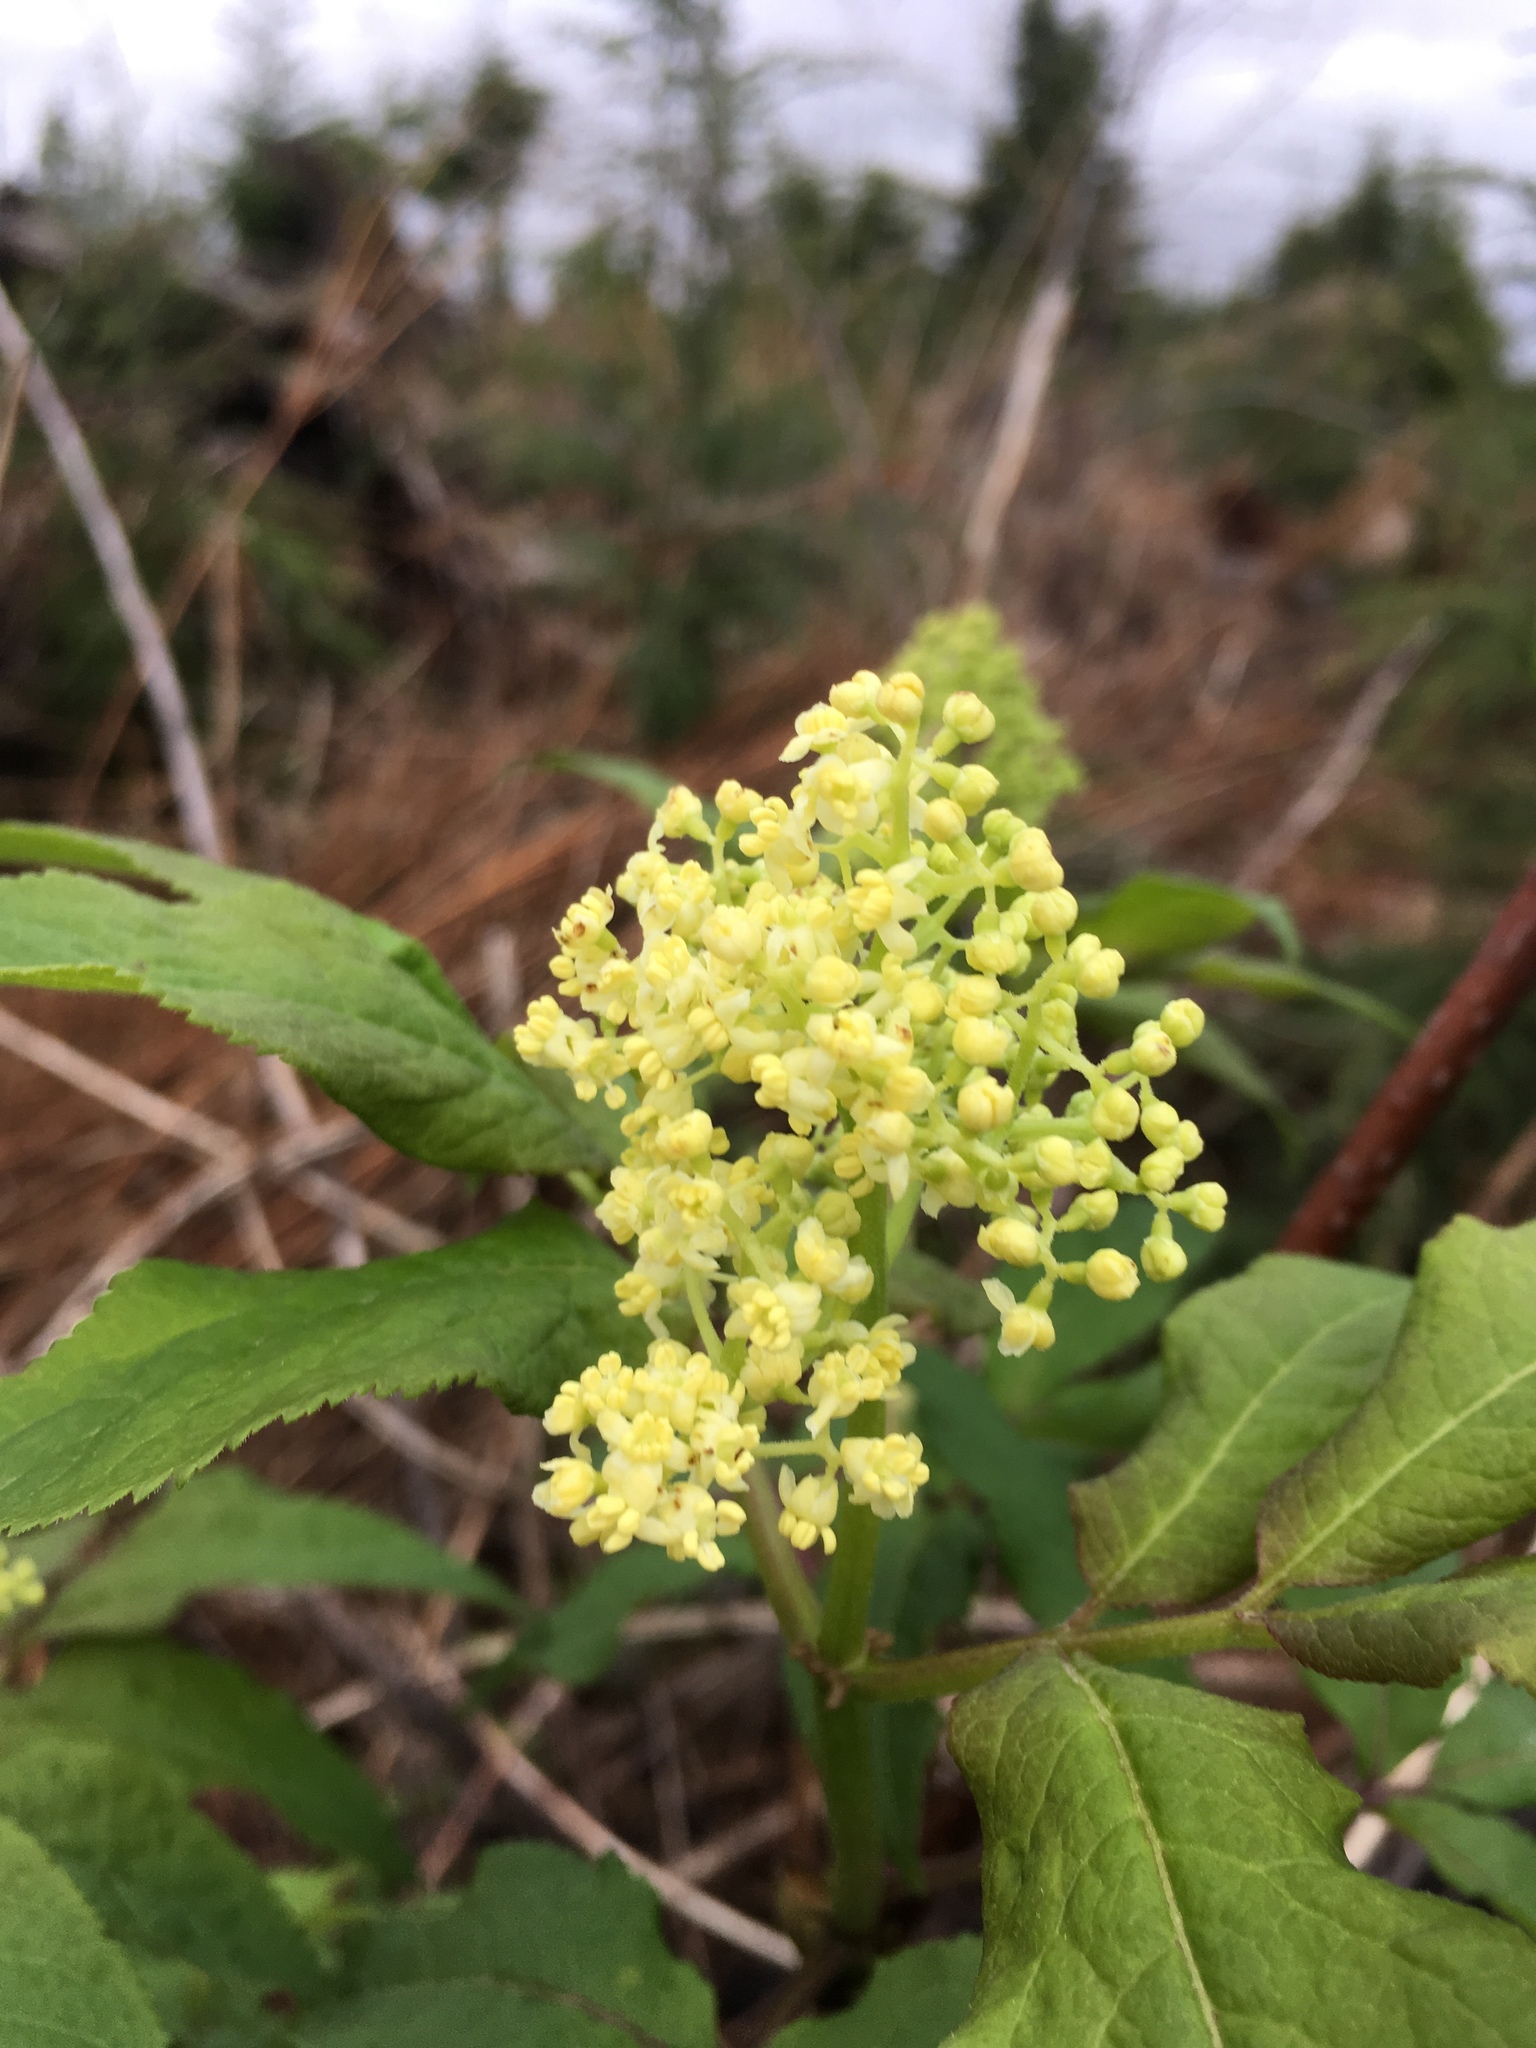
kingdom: Plantae
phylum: Tracheophyta
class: Magnoliopsida
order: Dipsacales
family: Viburnaceae
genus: Sambucus
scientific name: Sambucus racemosa
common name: Red-berried elder
